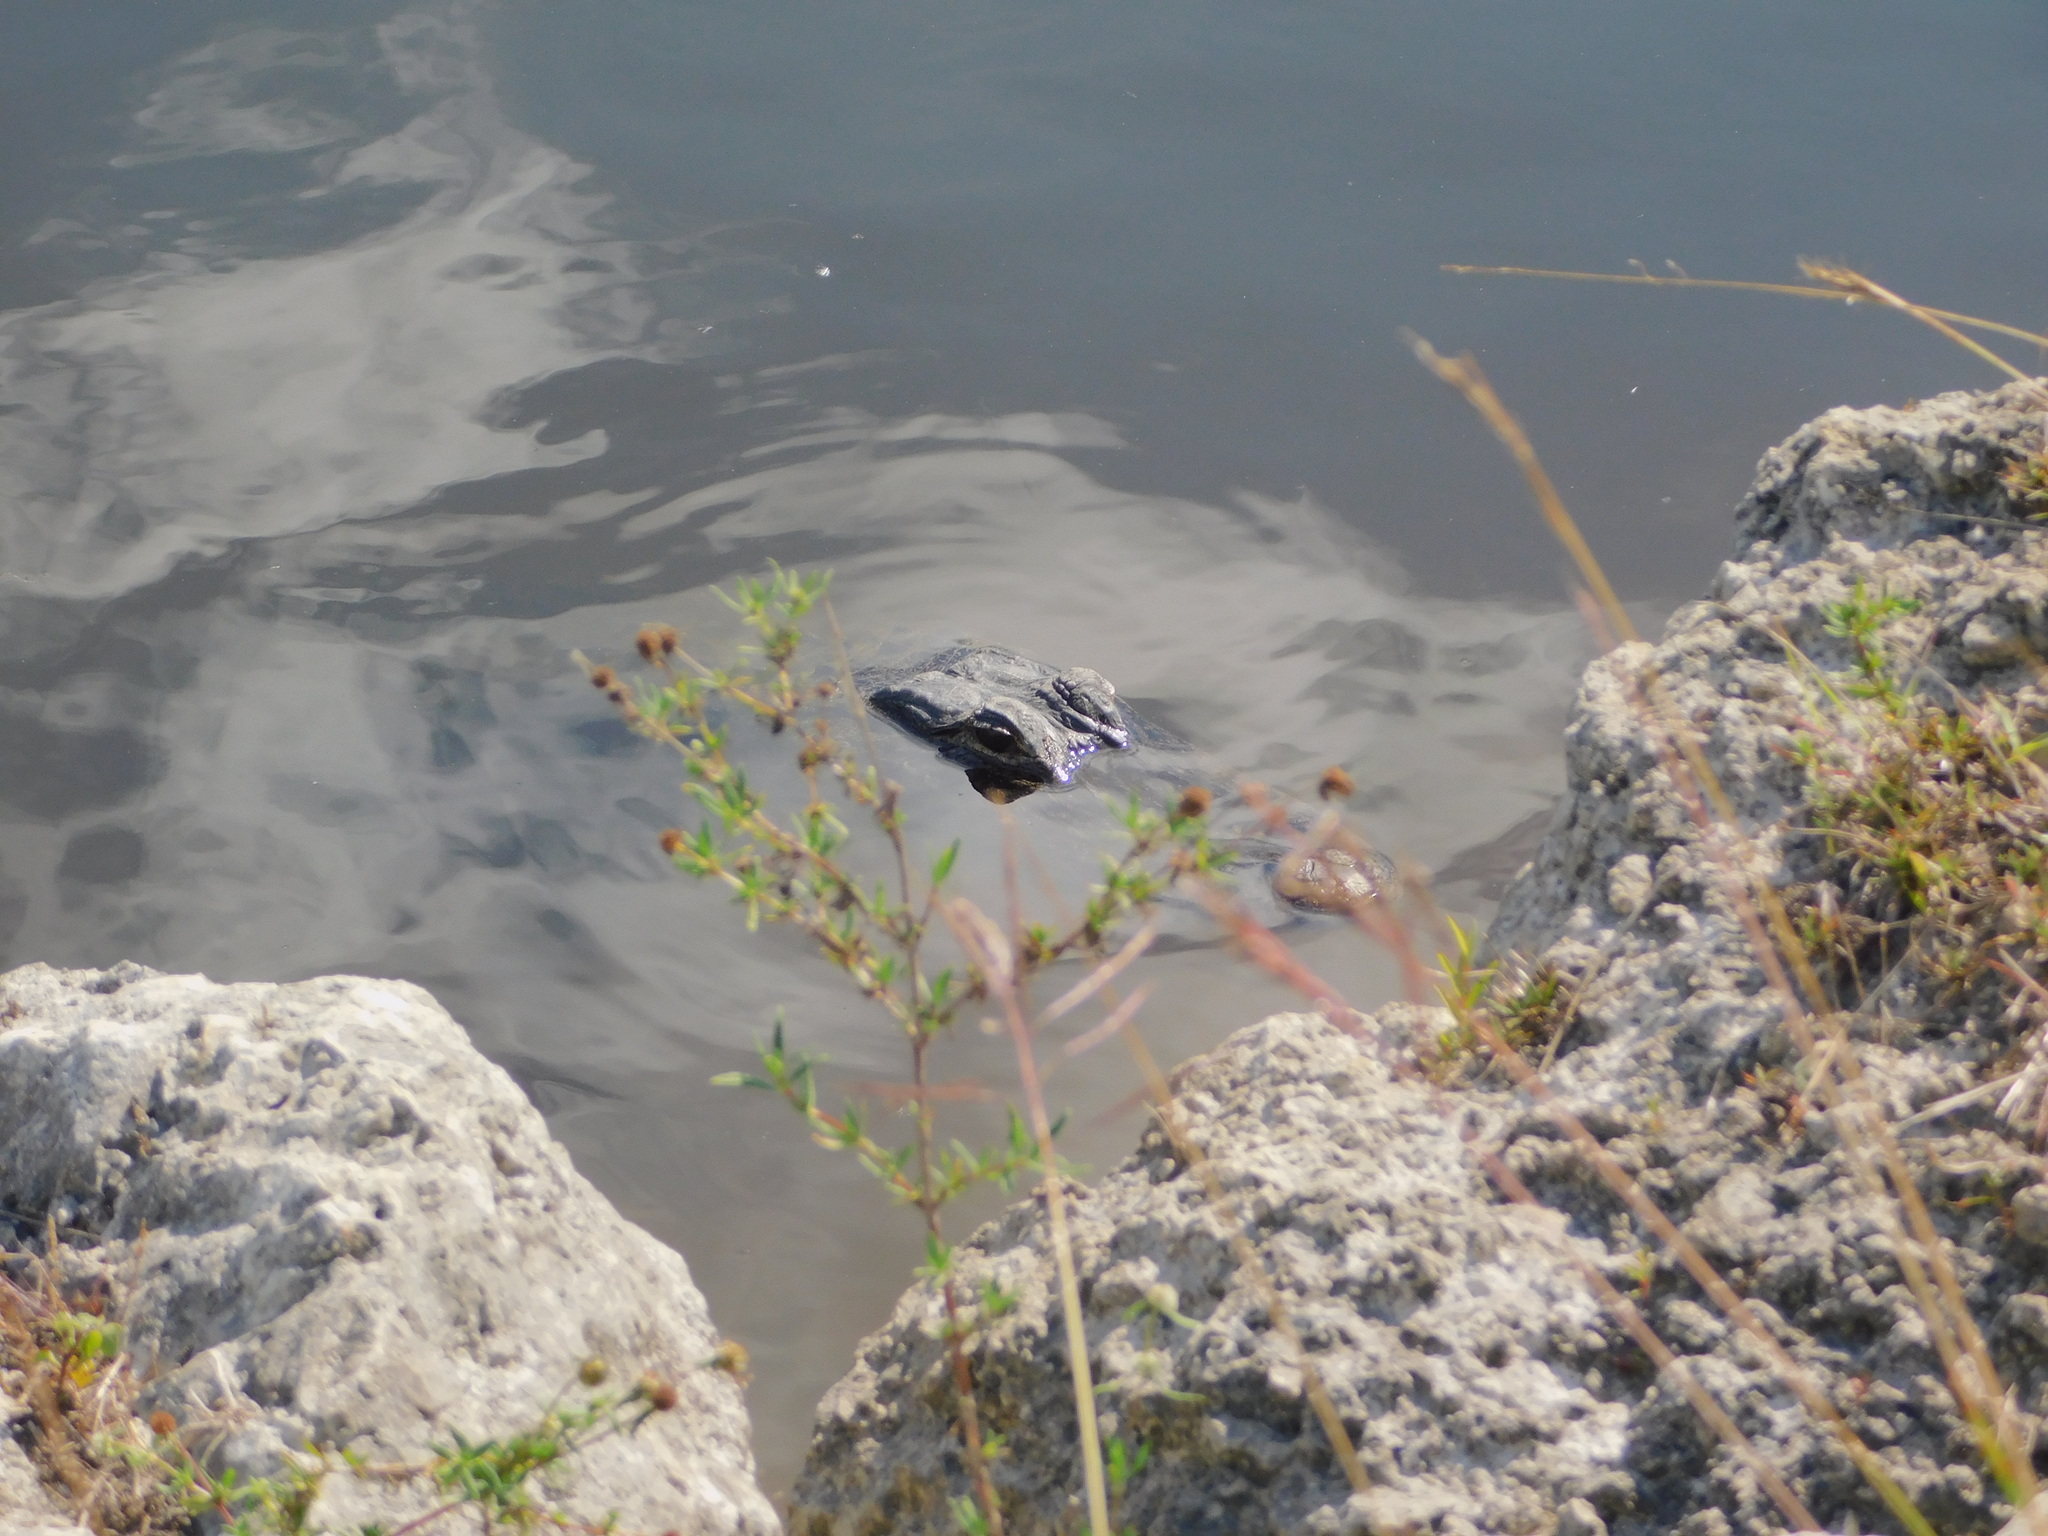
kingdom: Animalia
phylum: Chordata
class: Crocodylia
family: Alligatoridae
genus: Alligator
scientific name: Alligator mississippiensis
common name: American alligator
